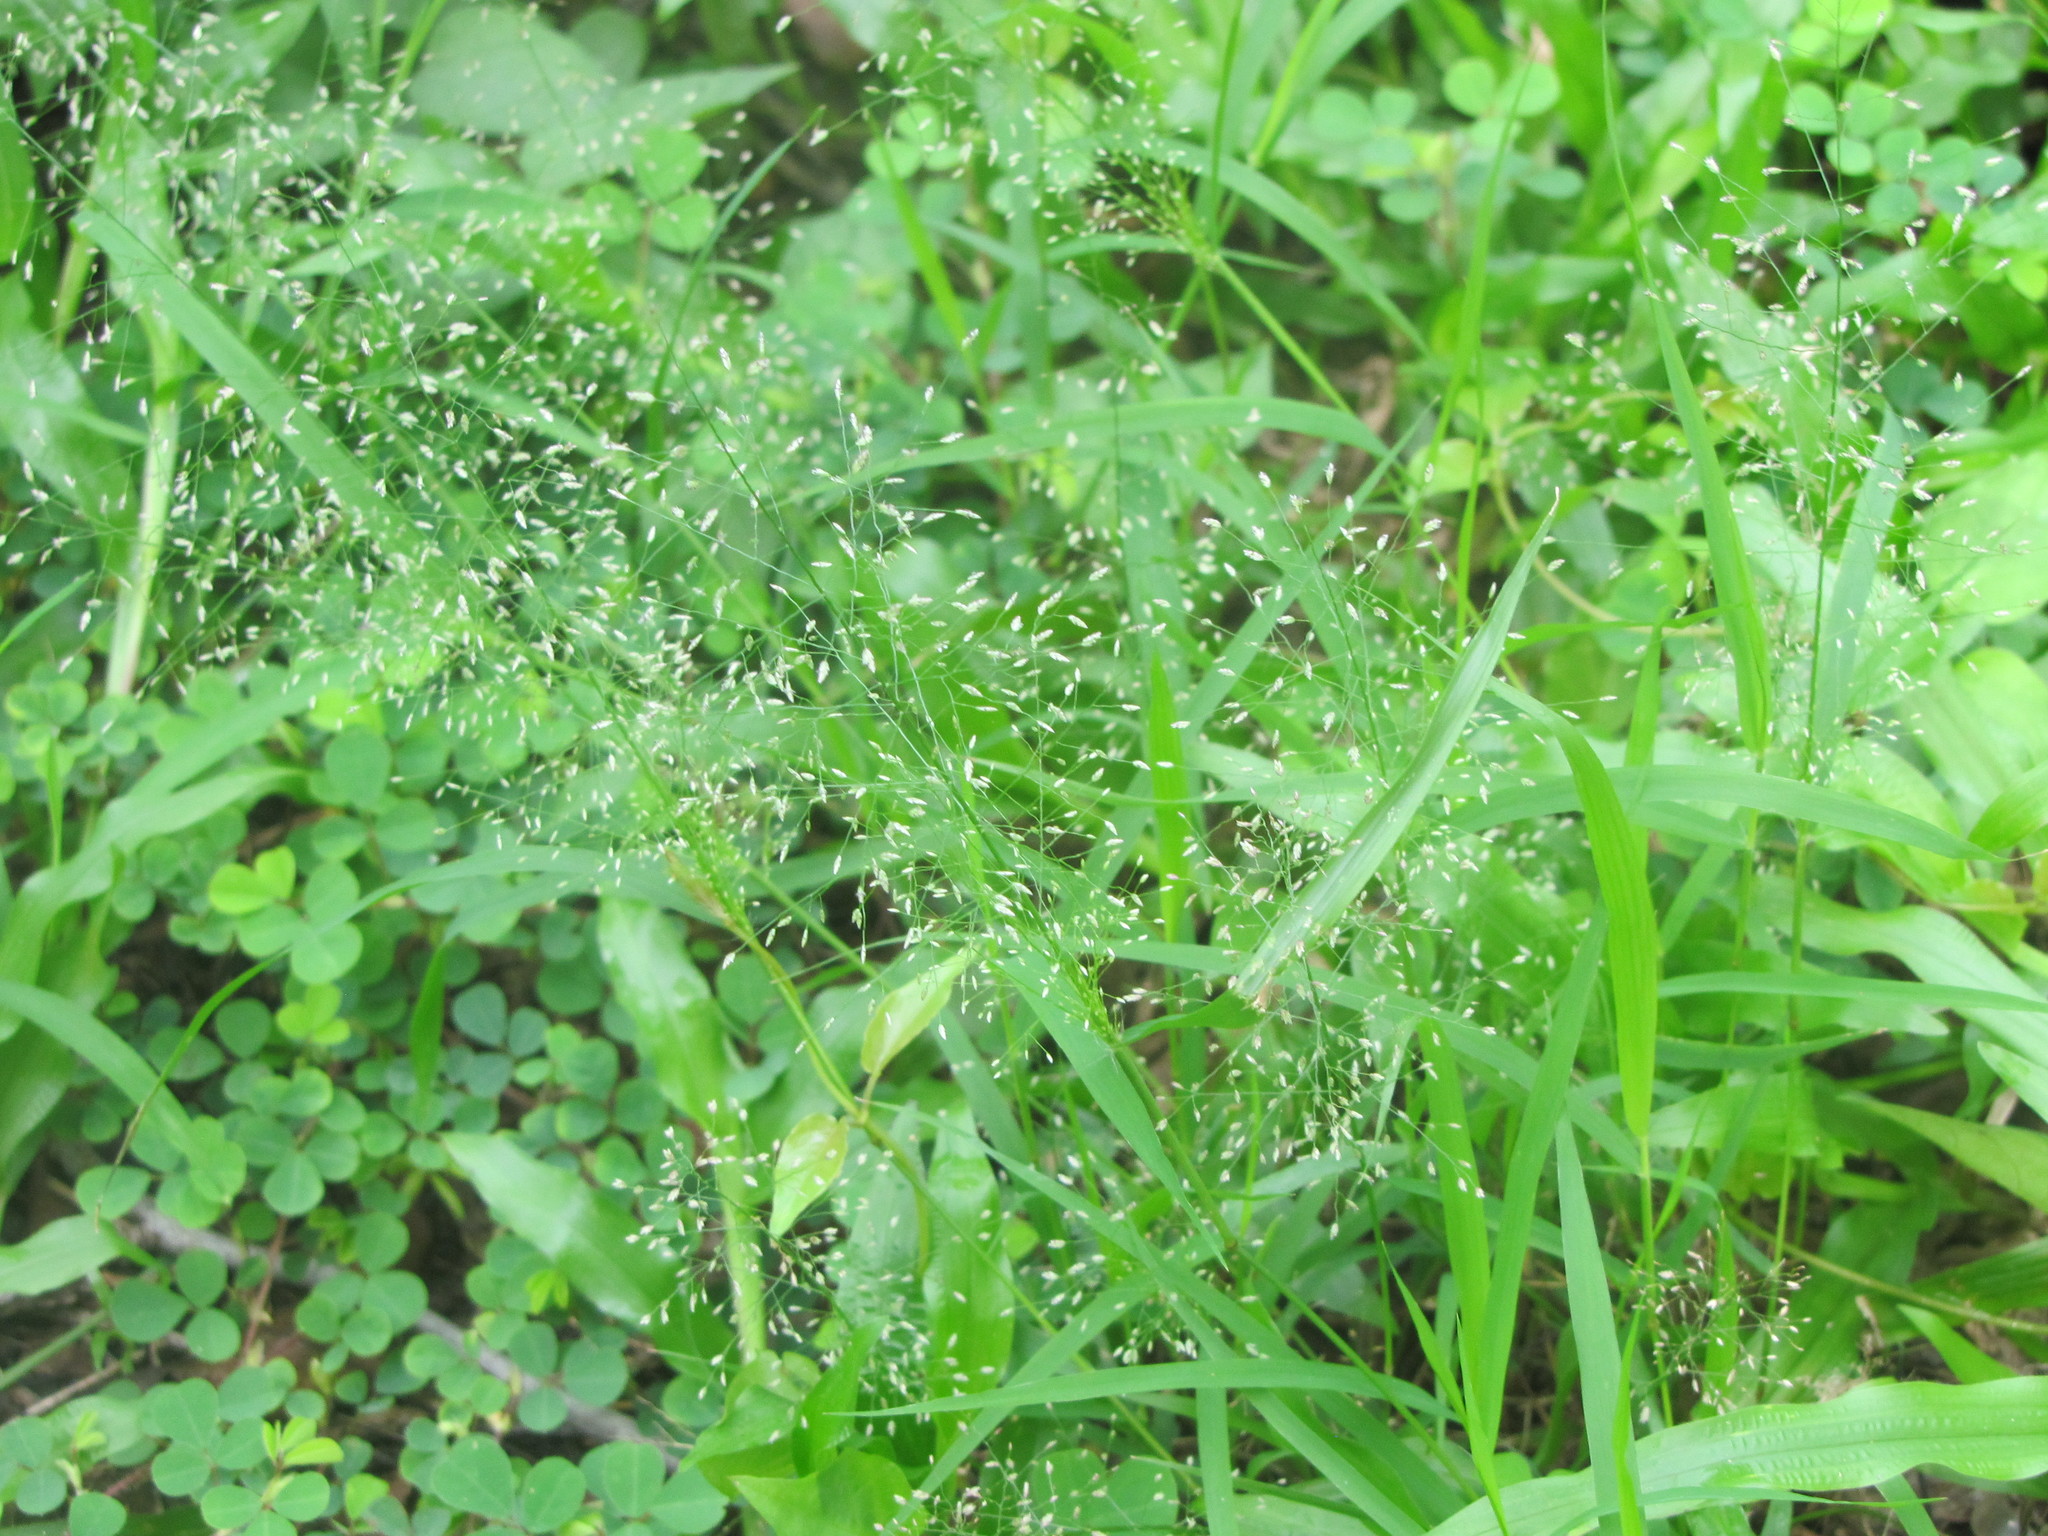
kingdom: Plantae
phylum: Tracheophyta
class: Liliopsida
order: Poales
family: Poaceae
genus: Eragrostis
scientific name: Eragrostis tenella
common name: Japanese lovegrass
